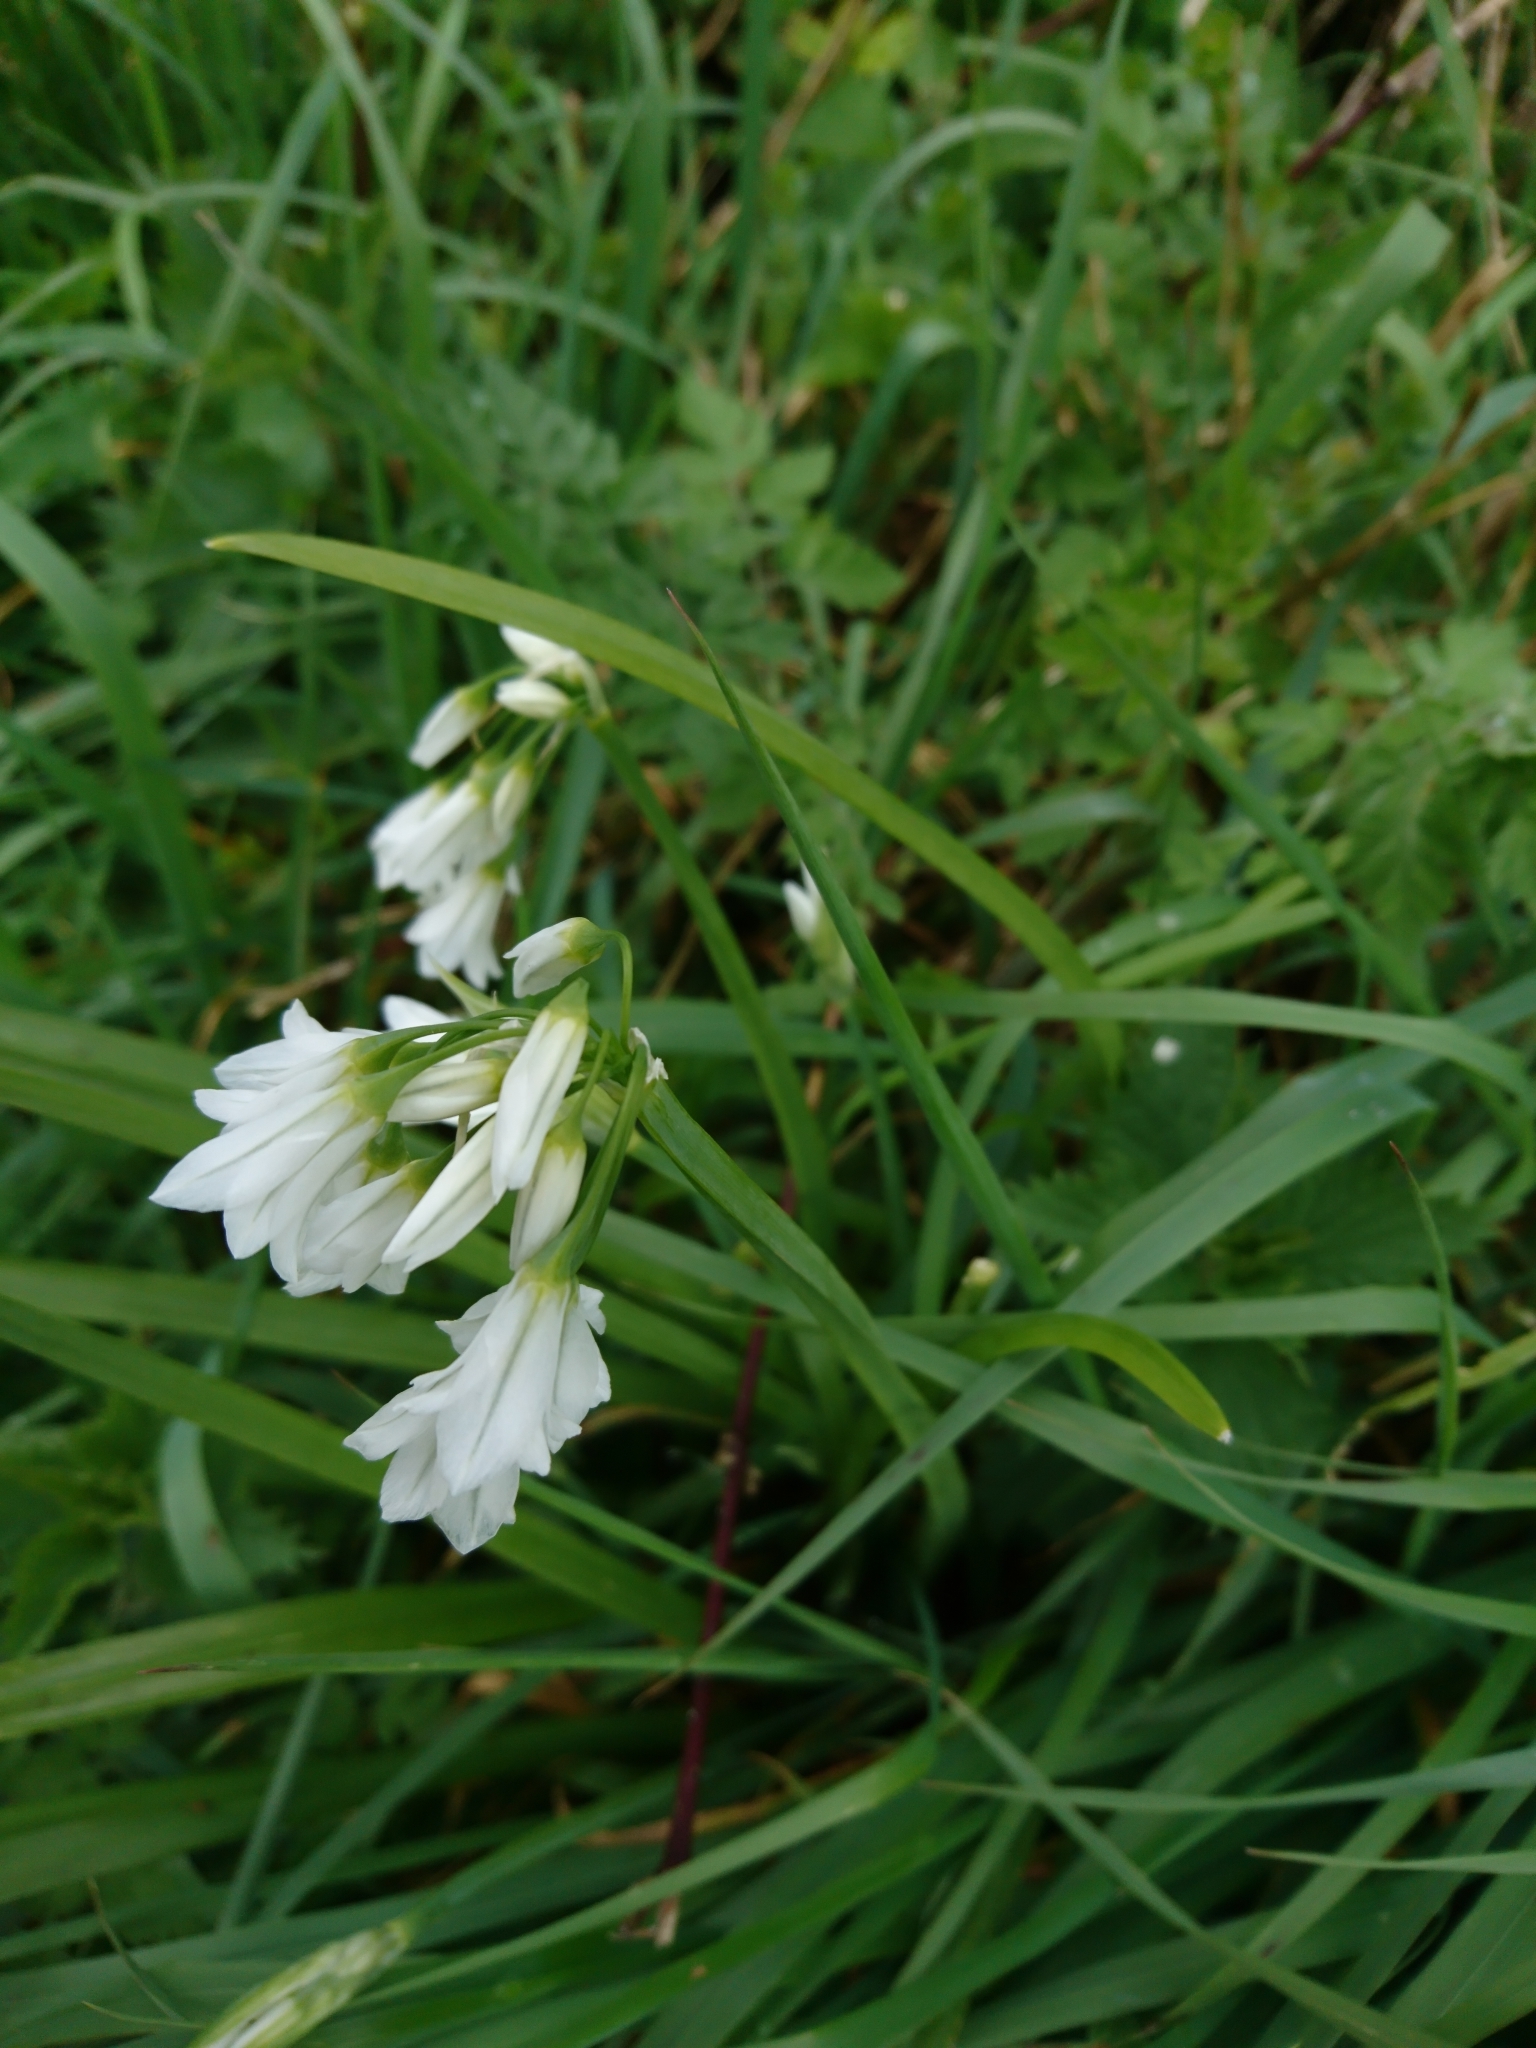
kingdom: Plantae
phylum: Tracheophyta
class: Liliopsida
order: Asparagales
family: Amaryllidaceae
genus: Allium
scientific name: Allium triquetrum
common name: Three-cornered garlic
